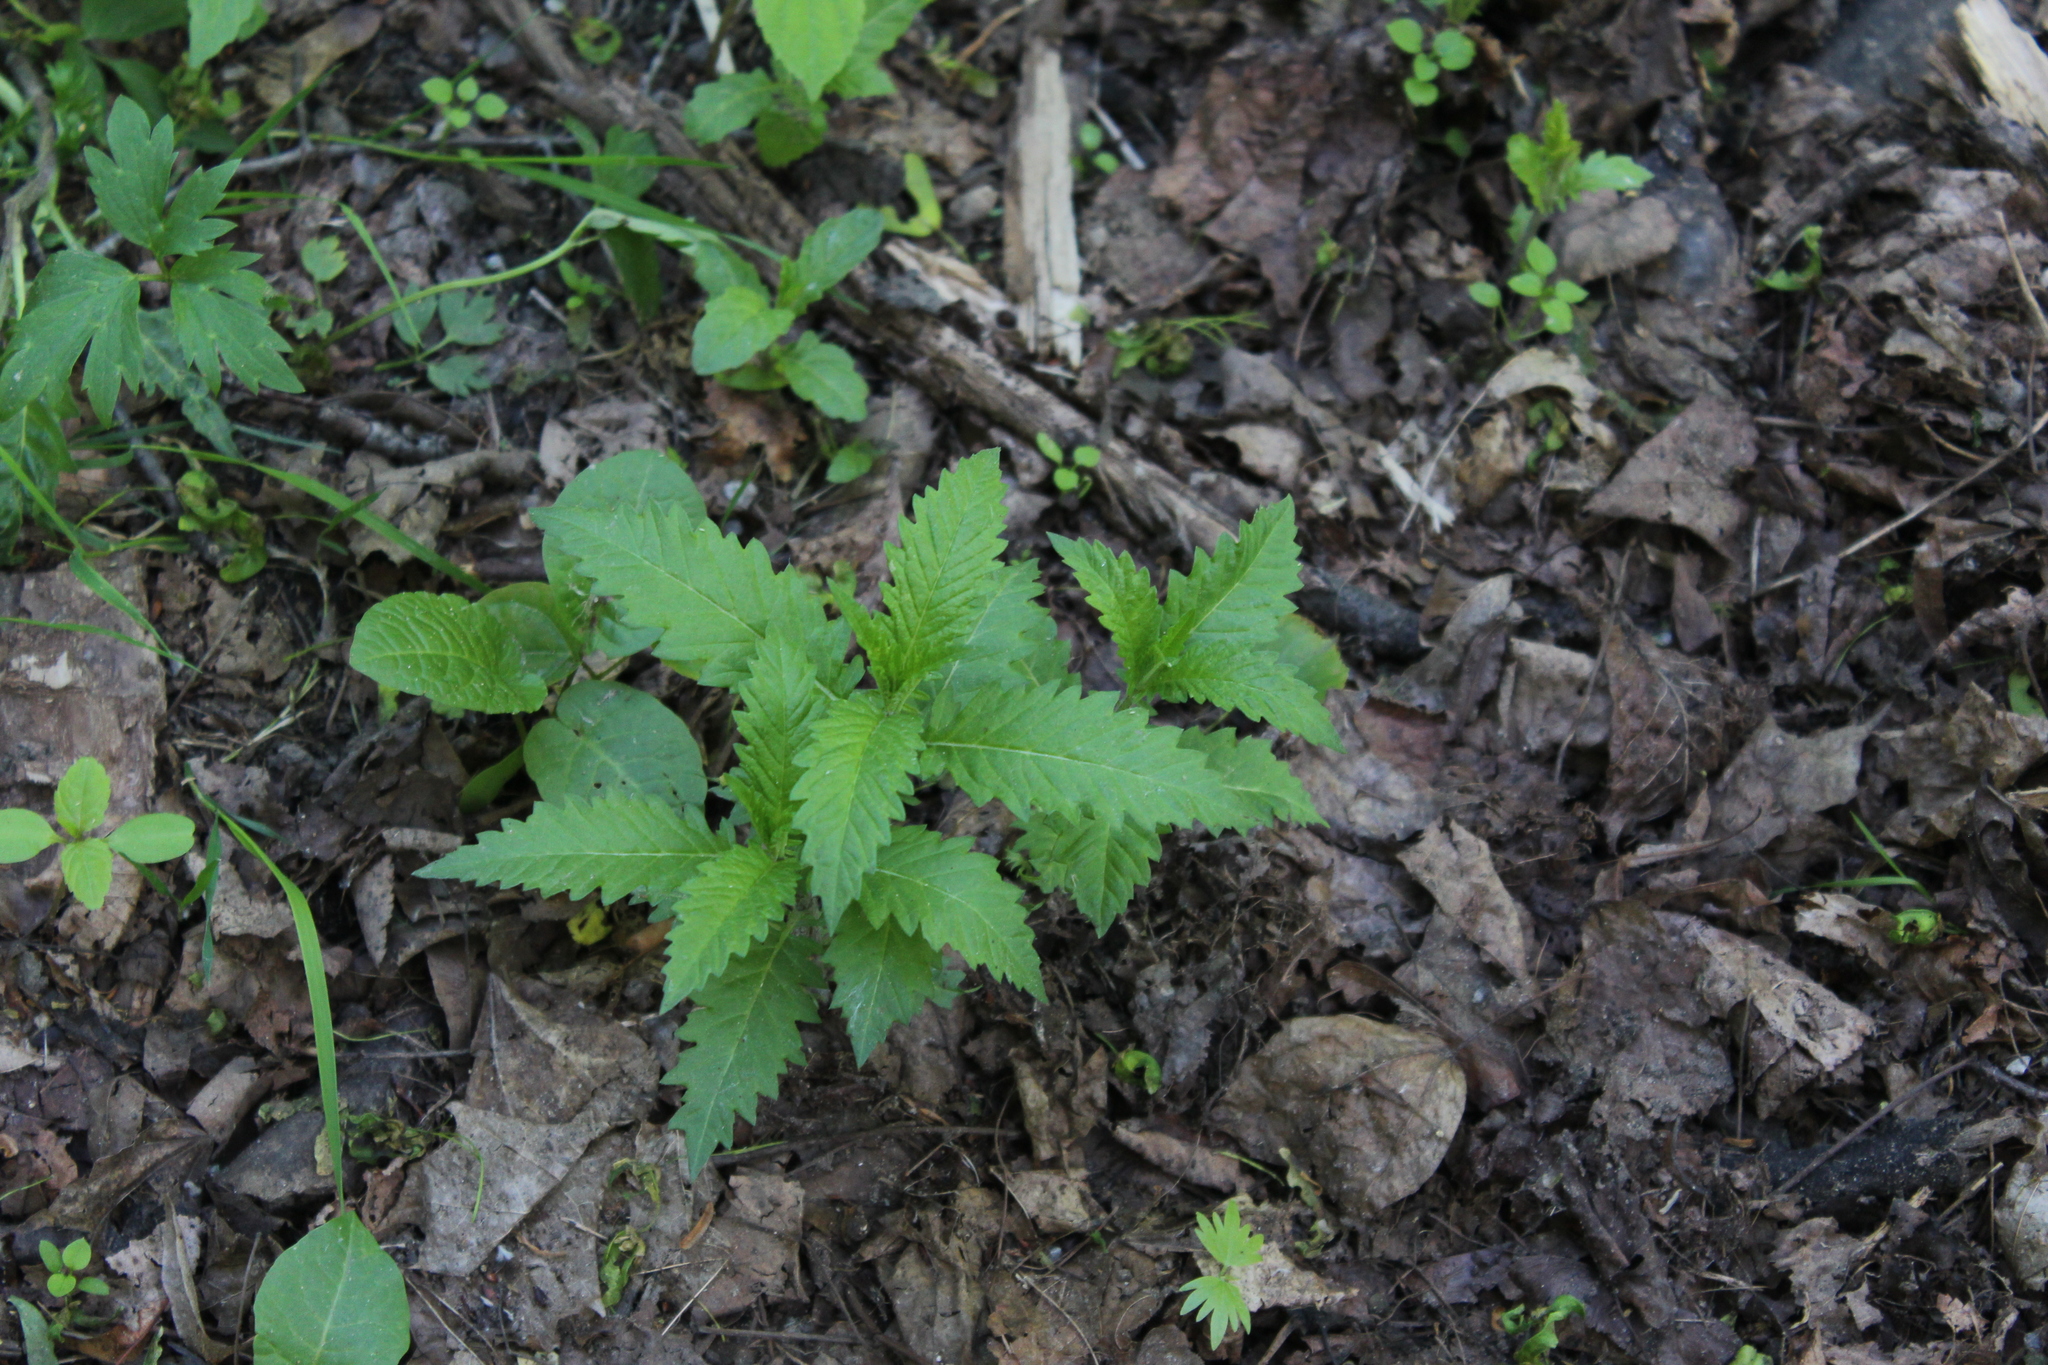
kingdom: Plantae
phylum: Tracheophyta
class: Magnoliopsida
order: Lamiales
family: Lamiaceae
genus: Lycopus
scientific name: Lycopus europaeus
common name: European bugleweed
